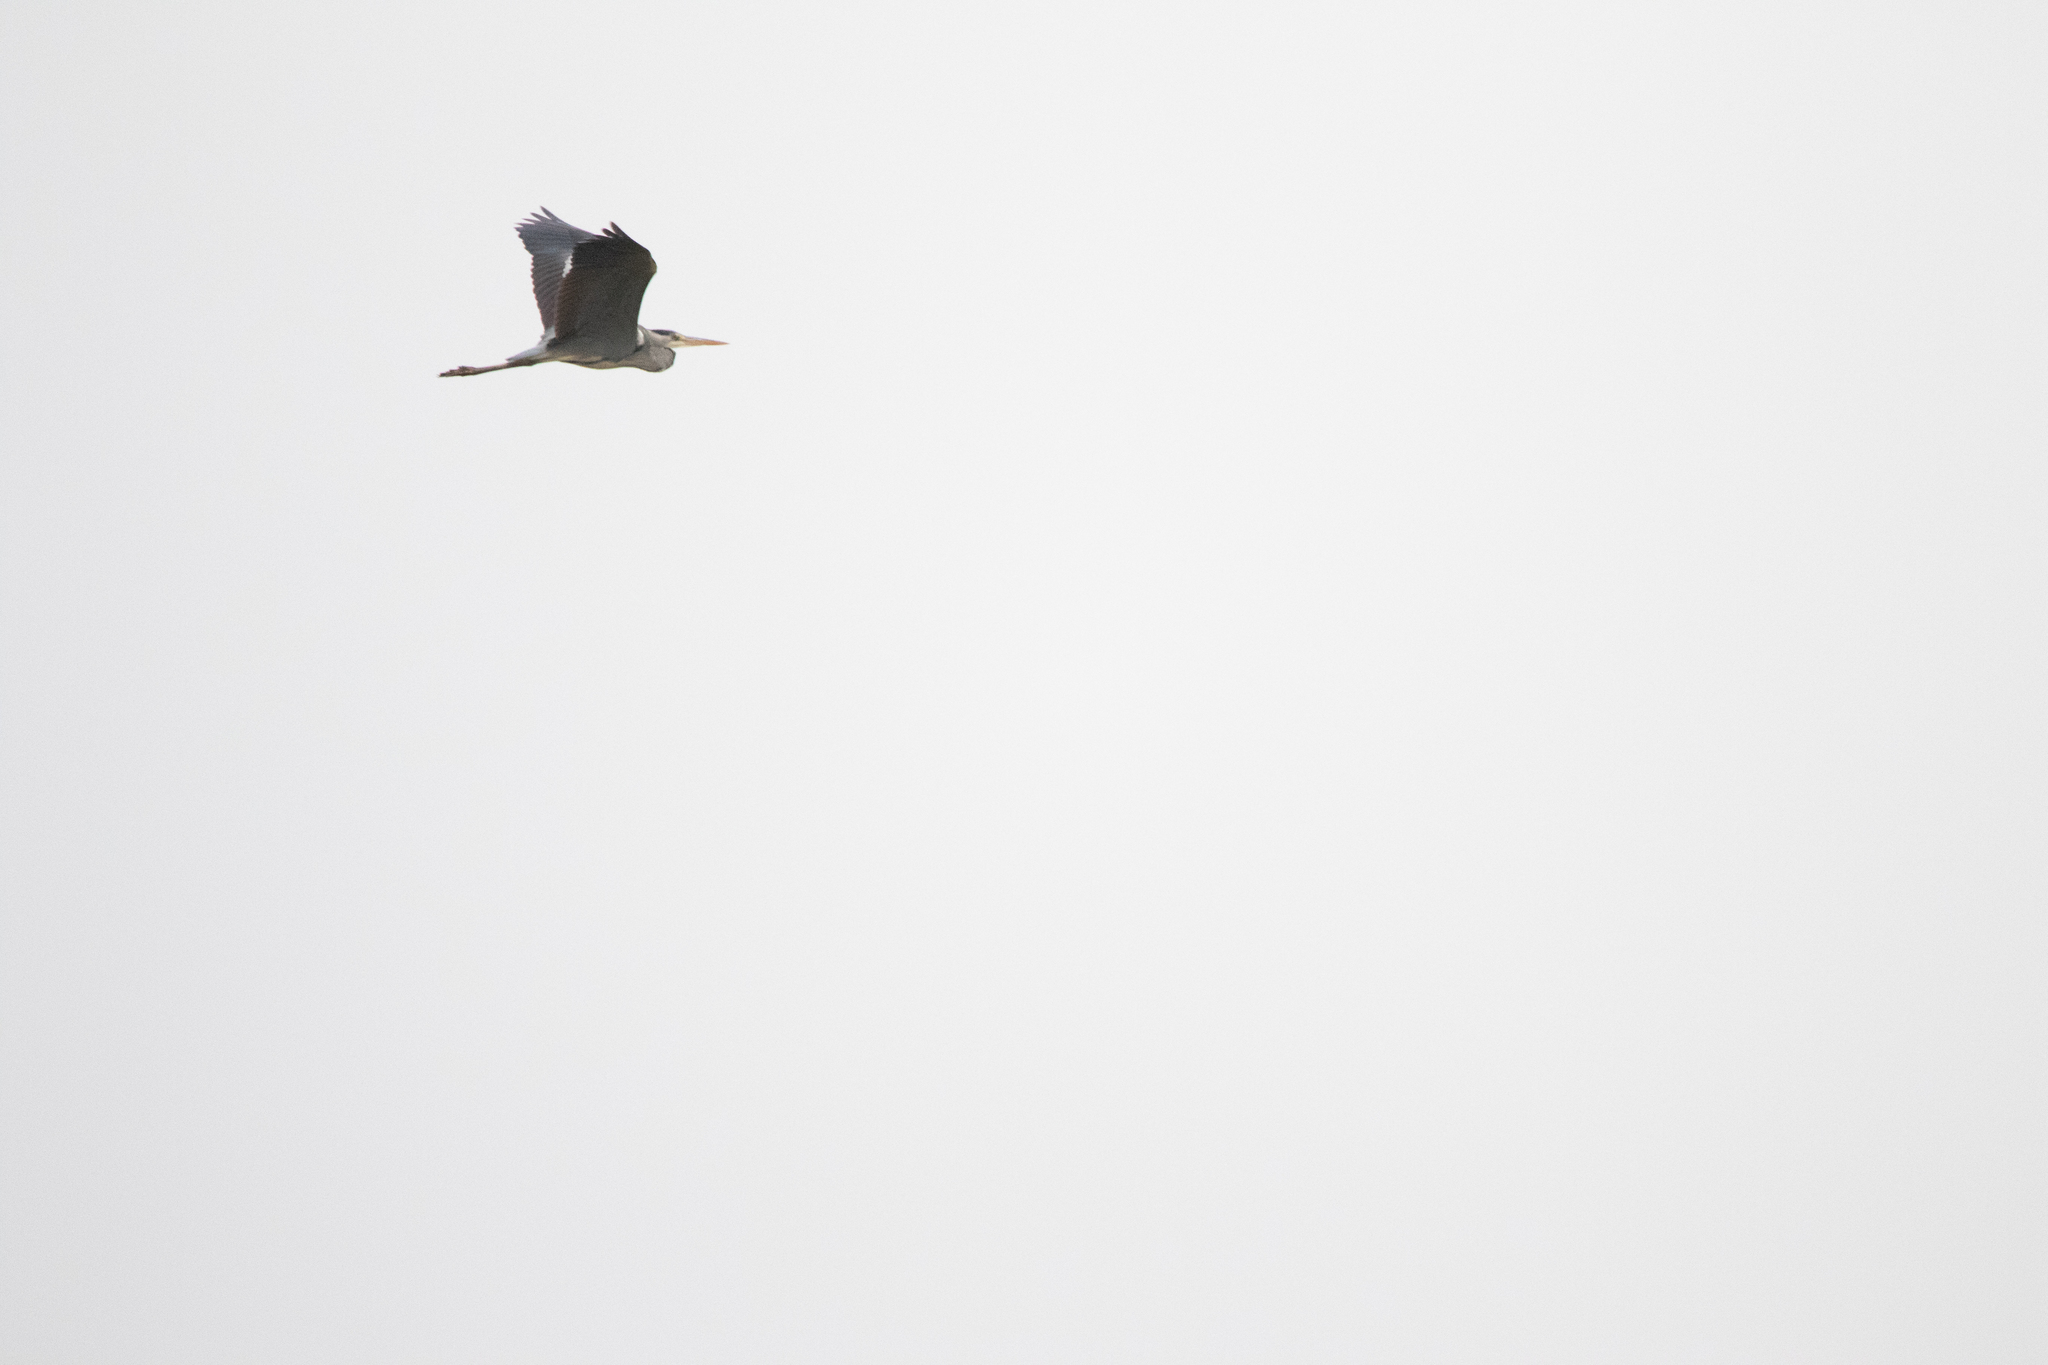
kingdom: Animalia
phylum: Chordata
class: Aves
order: Pelecaniformes
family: Ardeidae
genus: Ardea
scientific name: Ardea cinerea
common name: Grey heron
